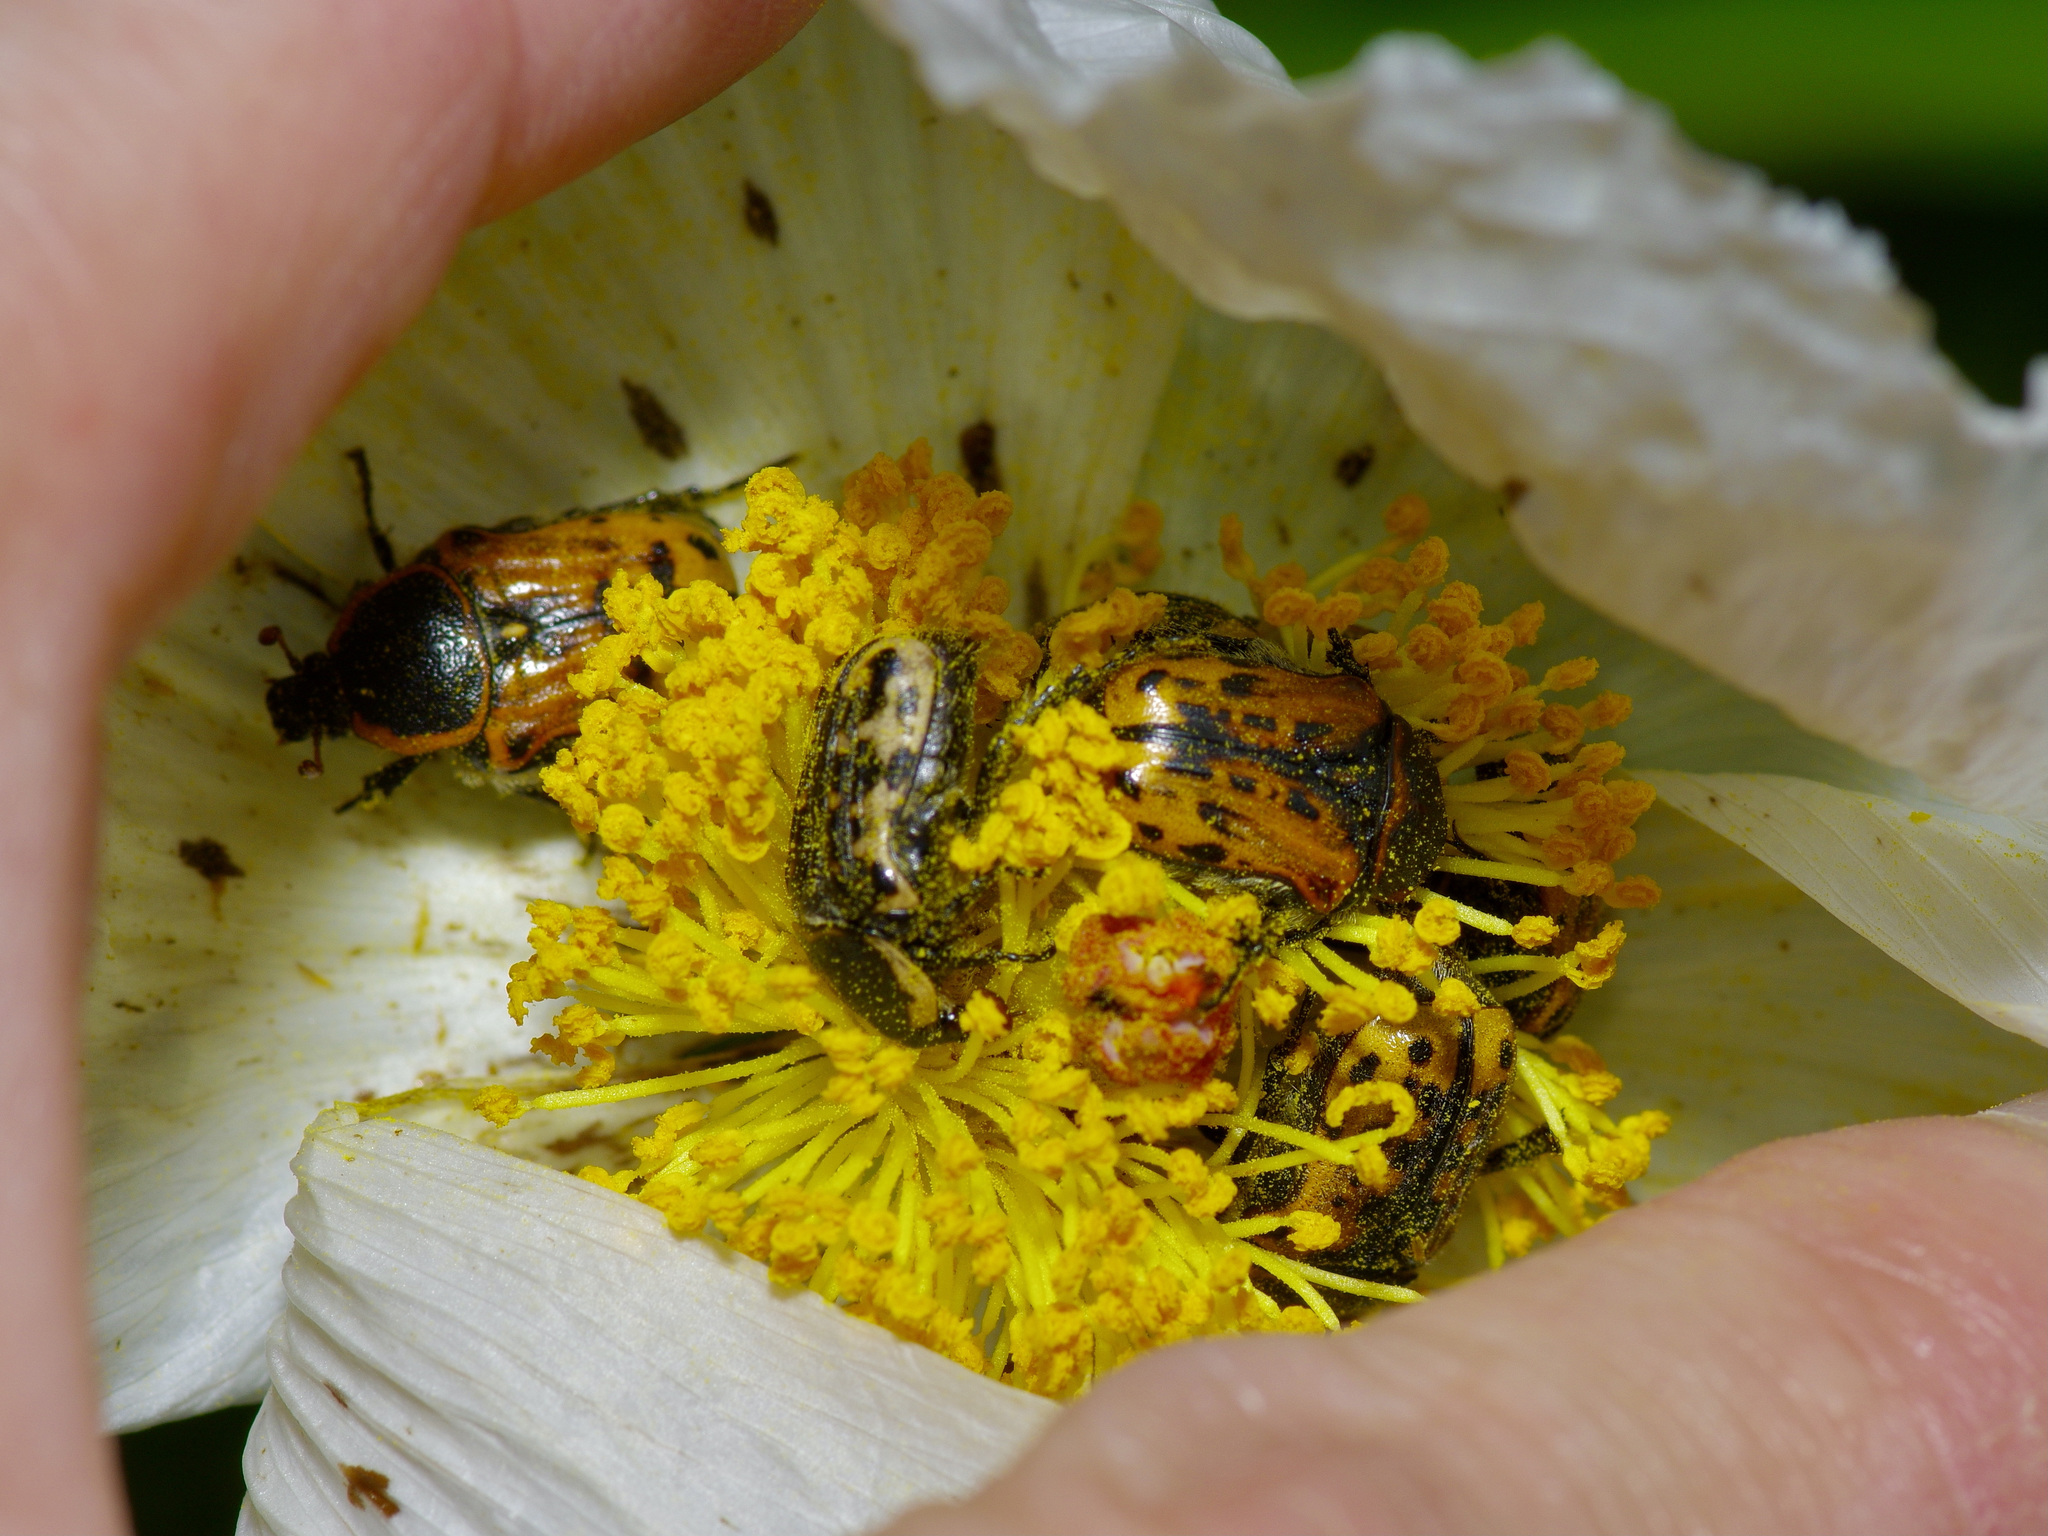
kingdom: Animalia
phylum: Arthropoda
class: Insecta
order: Coleoptera
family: Scarabaeidae
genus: Euphoria
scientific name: Euphoria kernii
